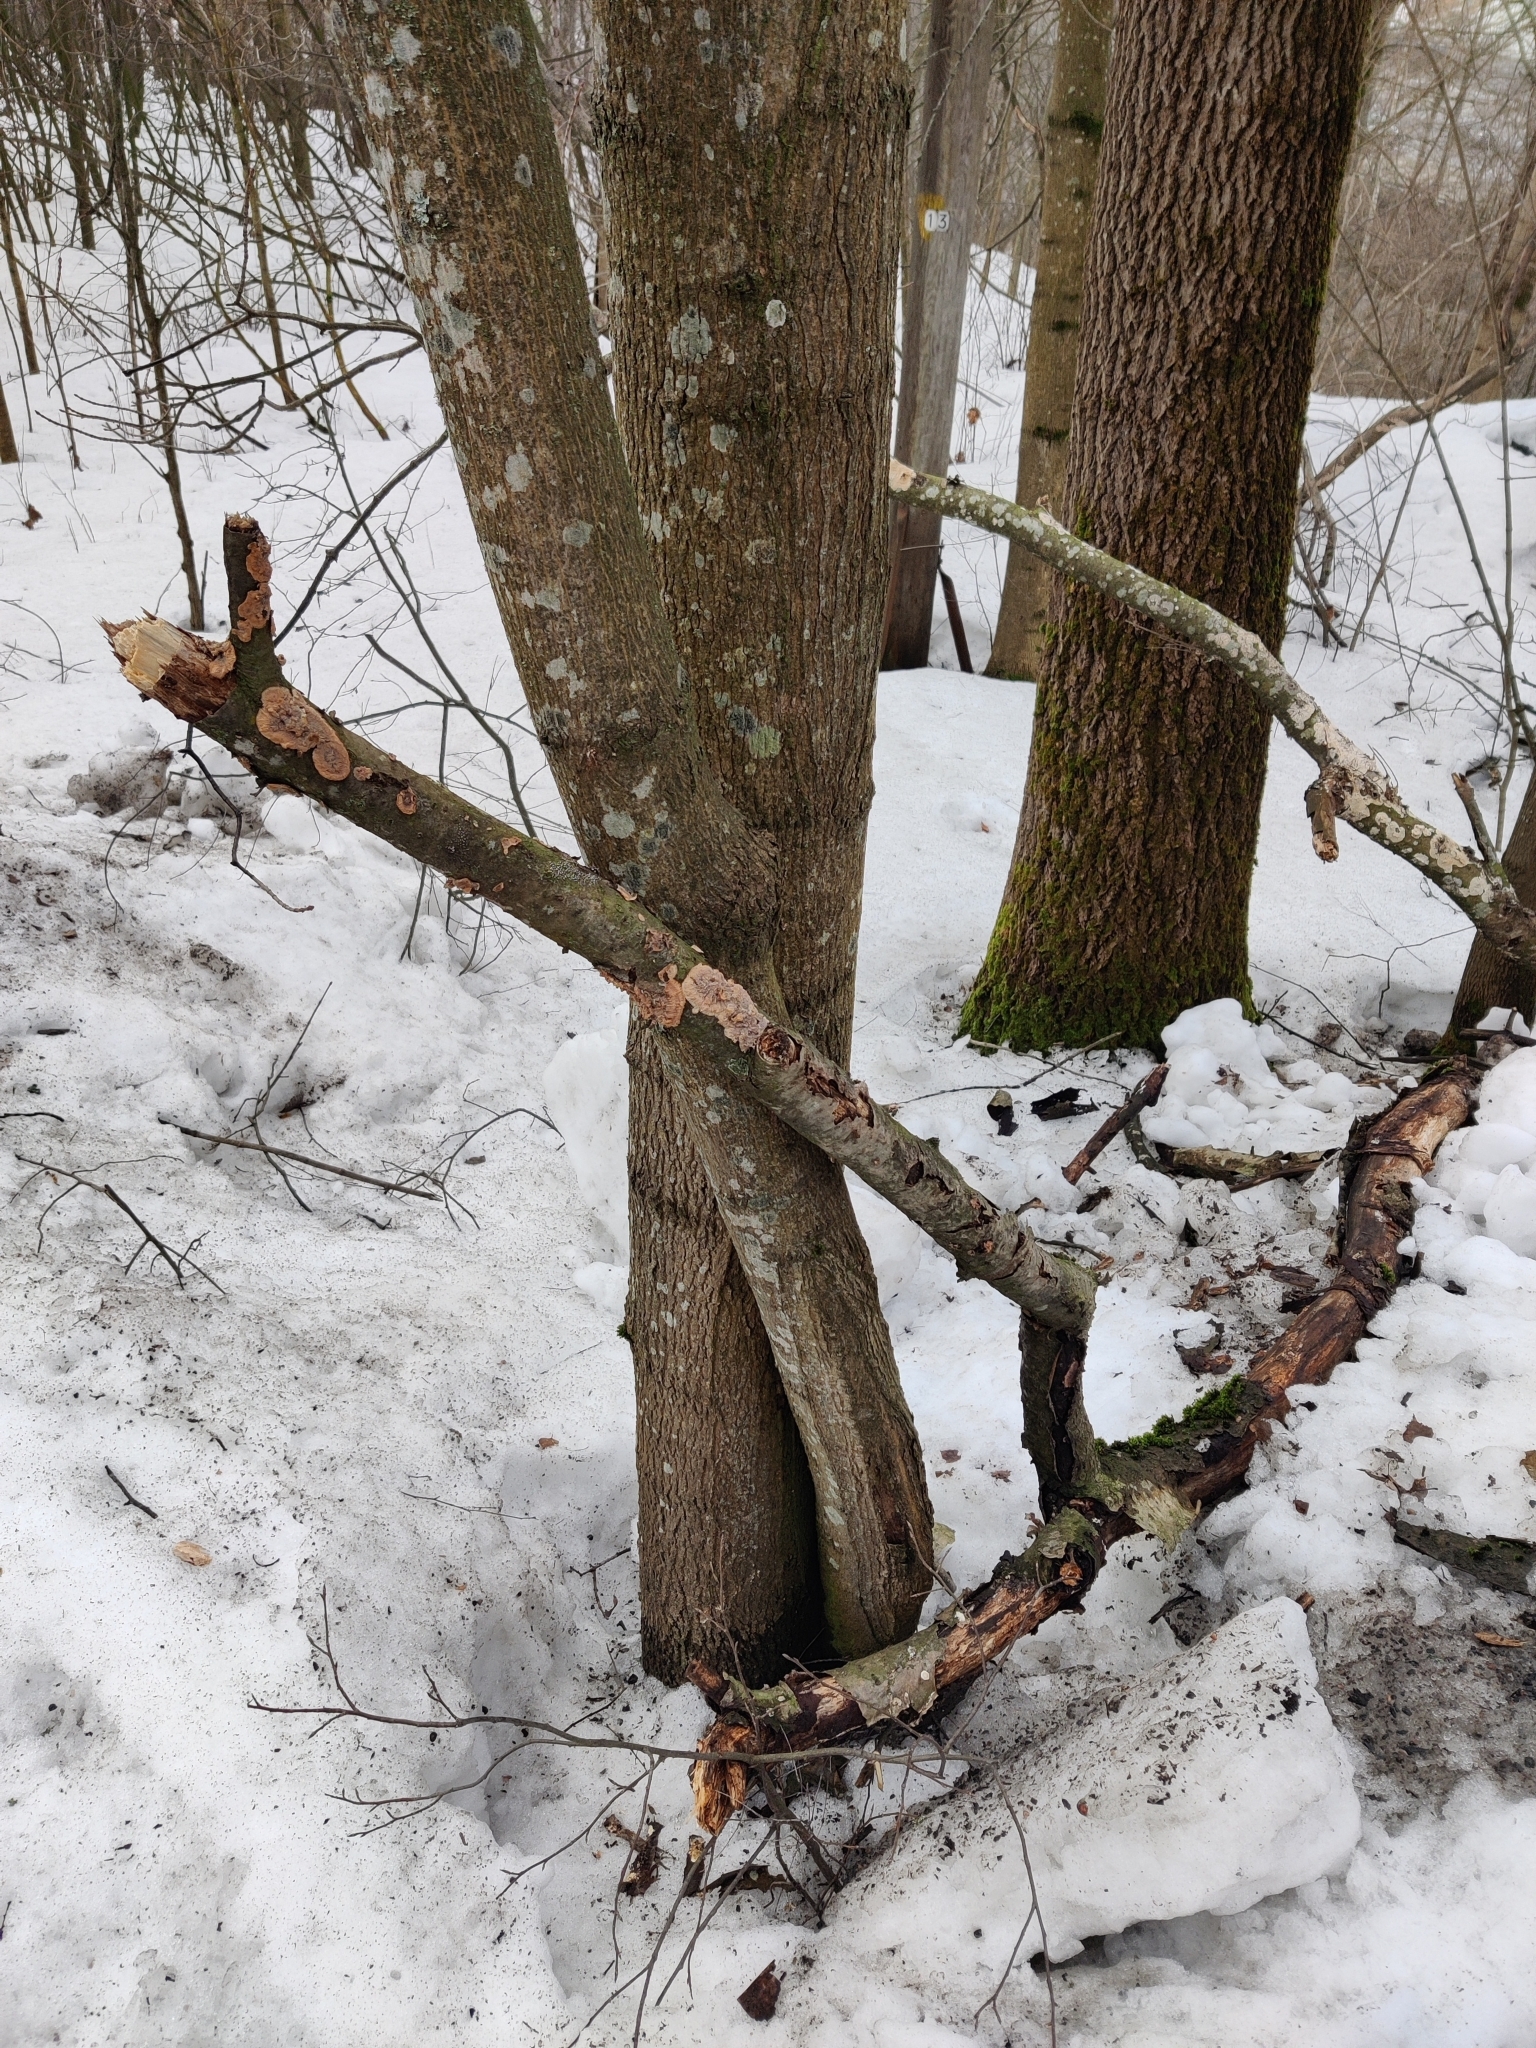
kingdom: Fungi
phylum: Basidiomycota
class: Agaricomycetes
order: Polyporales
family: Meruliaceae
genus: Phlebia
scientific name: Phlebia radiata
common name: Wrinkled crust
